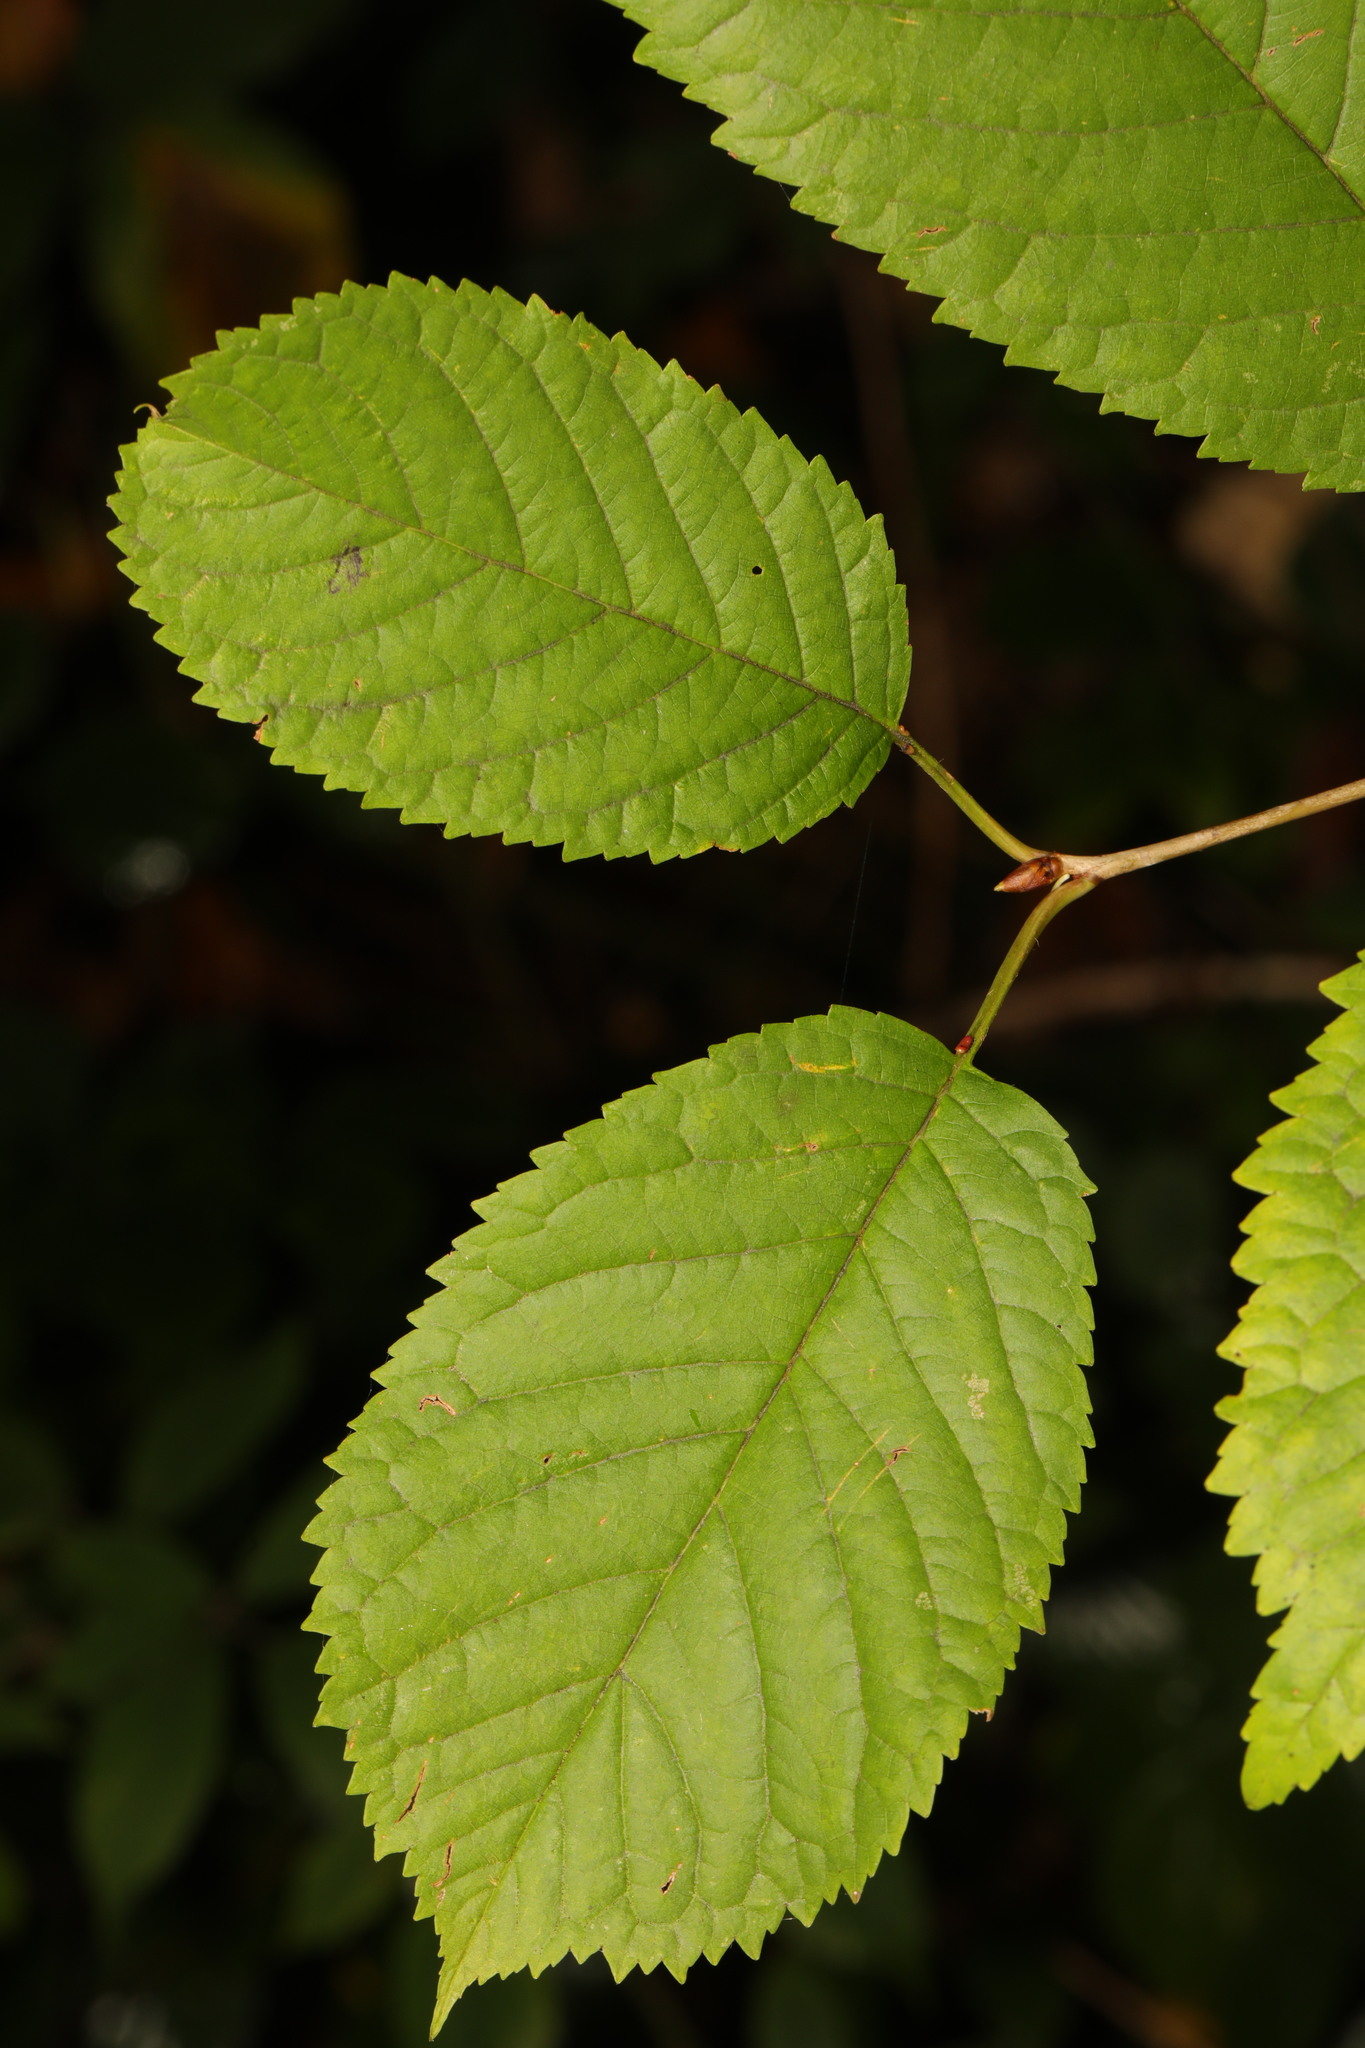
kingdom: Plantae
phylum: Tracheophyta
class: Magnoliopsida
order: Rosales
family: Rosaceae
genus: Prunus
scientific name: Prunus avium
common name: Sweet cherry
